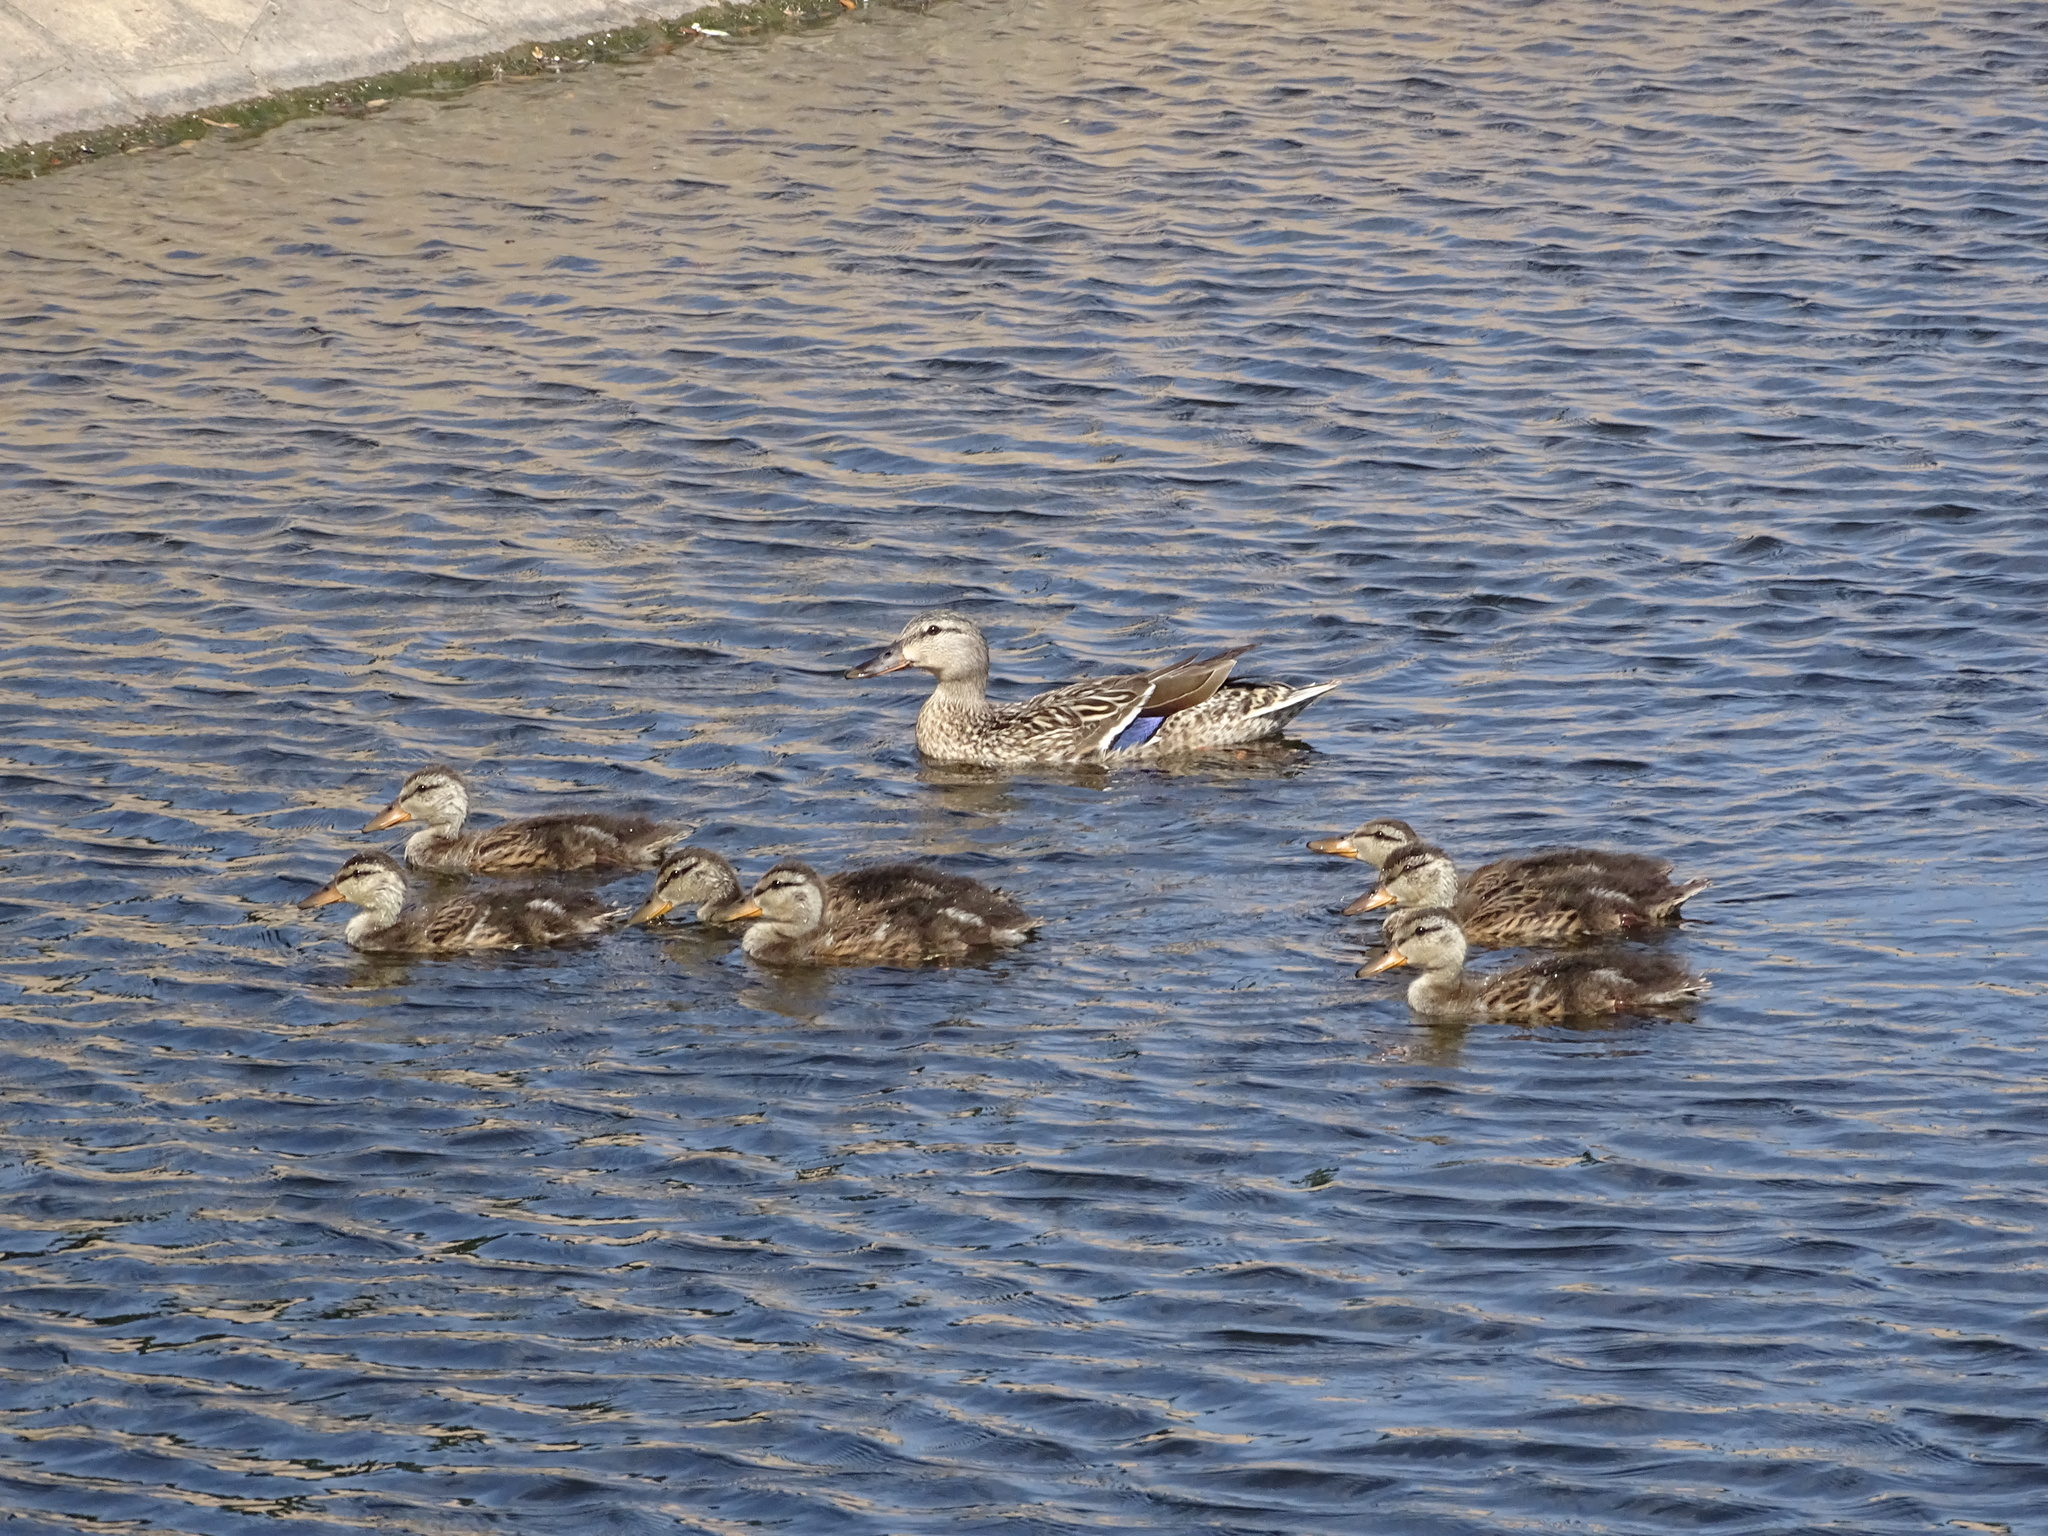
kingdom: Animalia
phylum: Chordata
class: Aves
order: Anseriformes
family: Anatidae
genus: Anas
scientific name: Anas platyrhynchos
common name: Mallard
